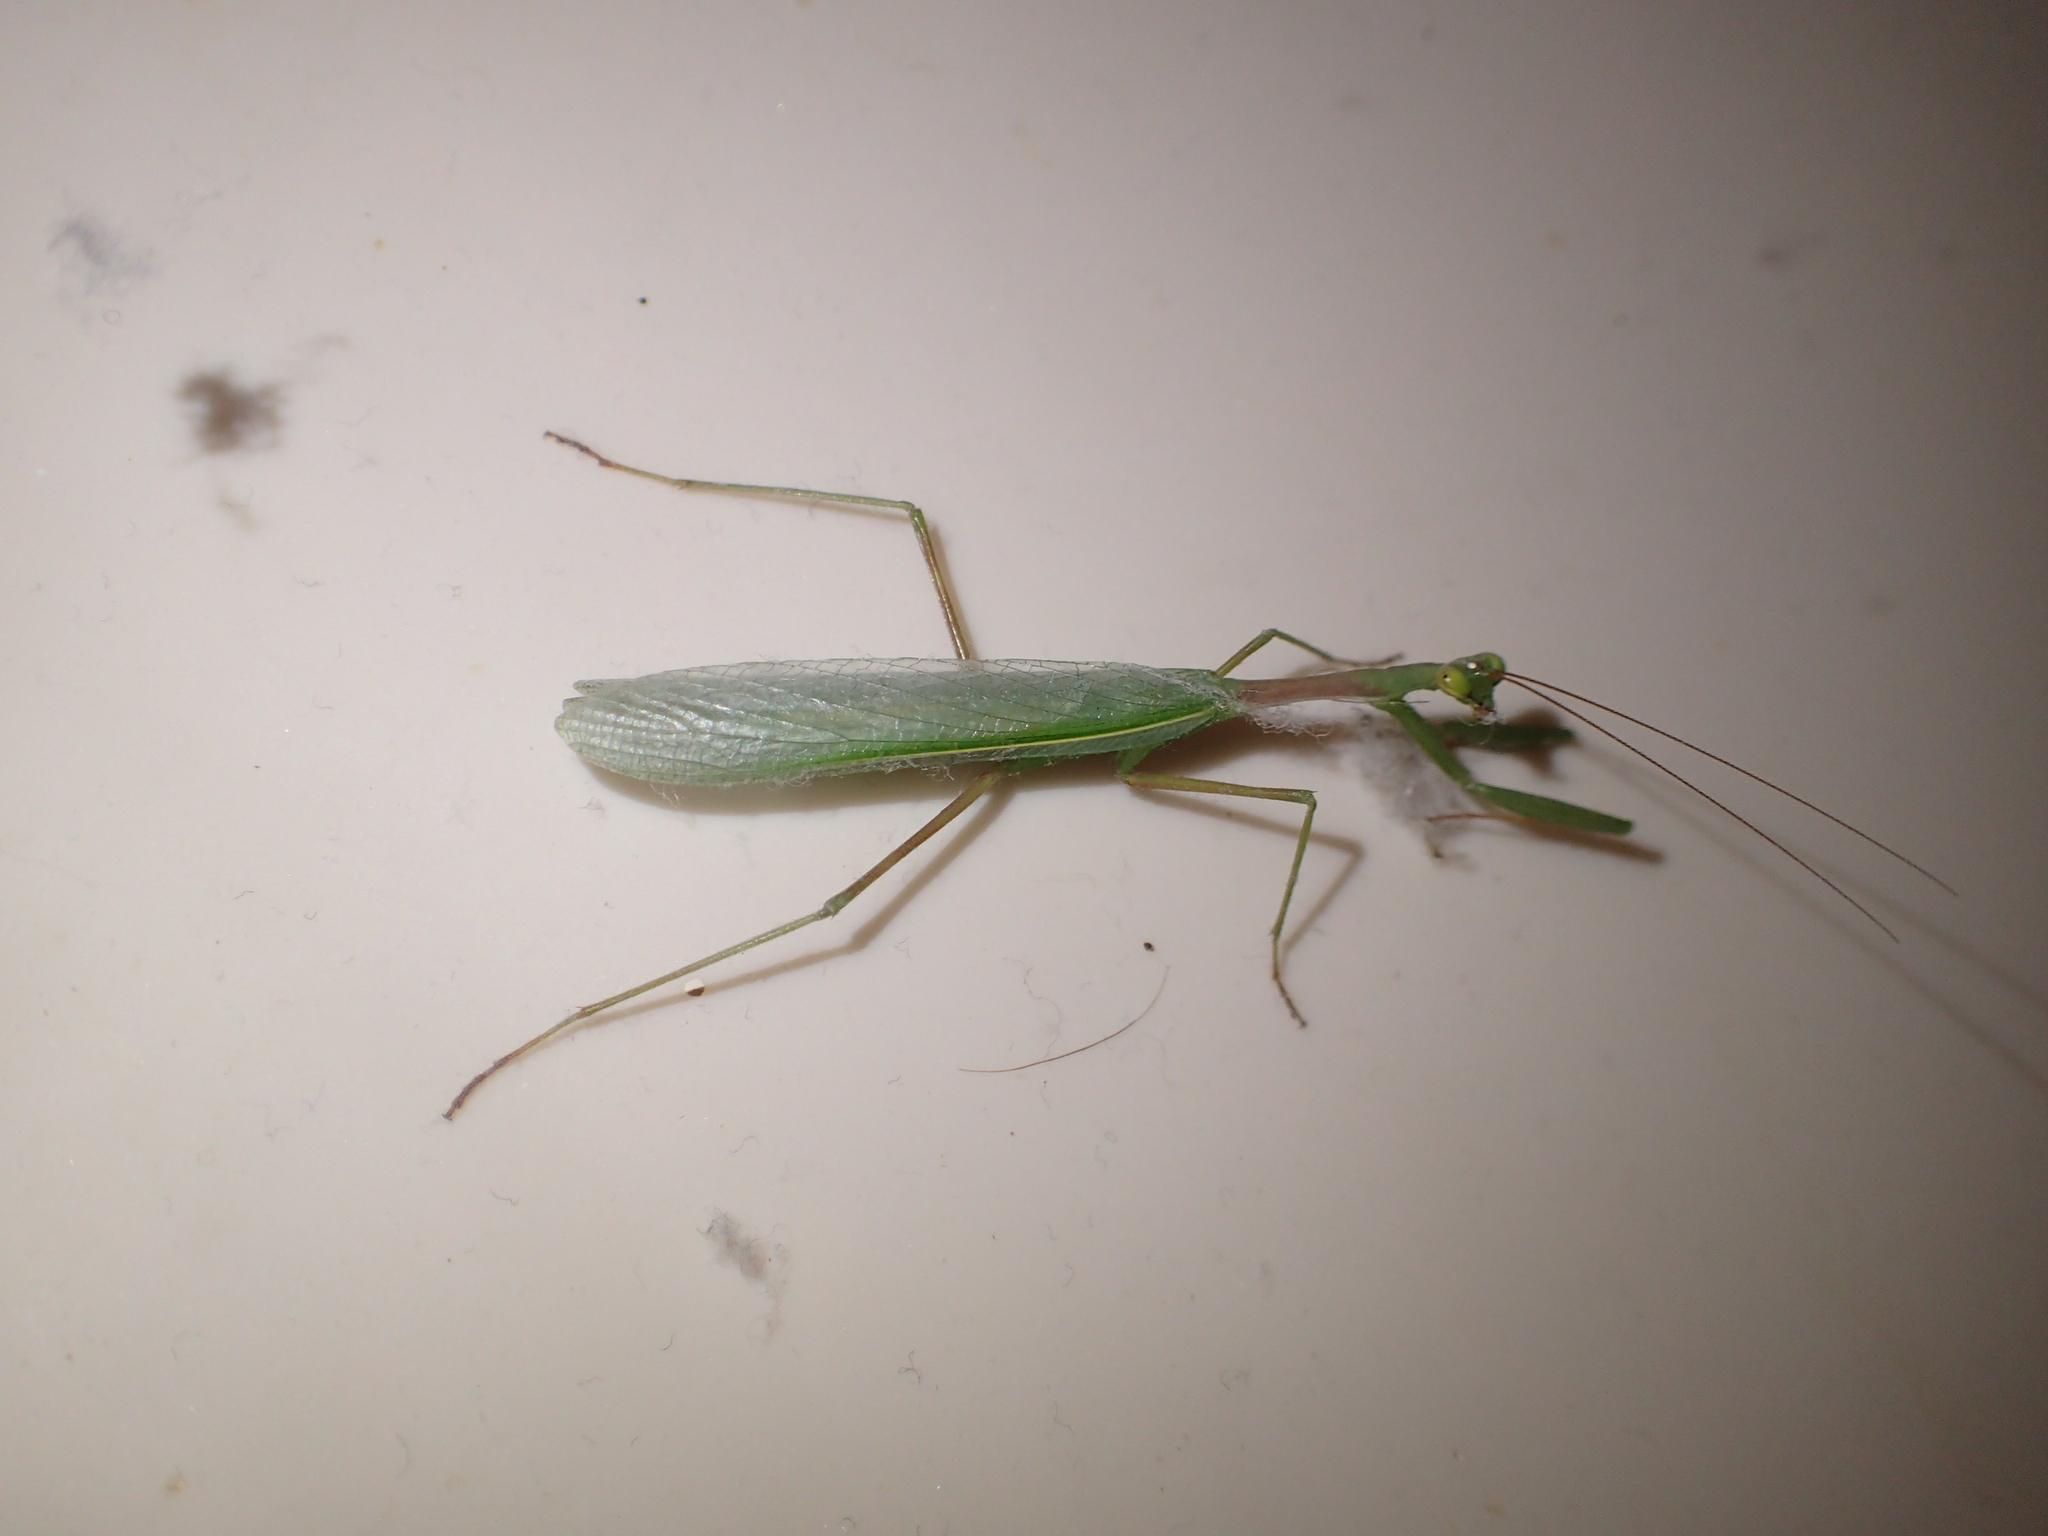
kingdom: Animalia
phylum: Arthropoda
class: Insecta
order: Mantodea
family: Miomantidae
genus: Miomantis
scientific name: Miomantis caffra
